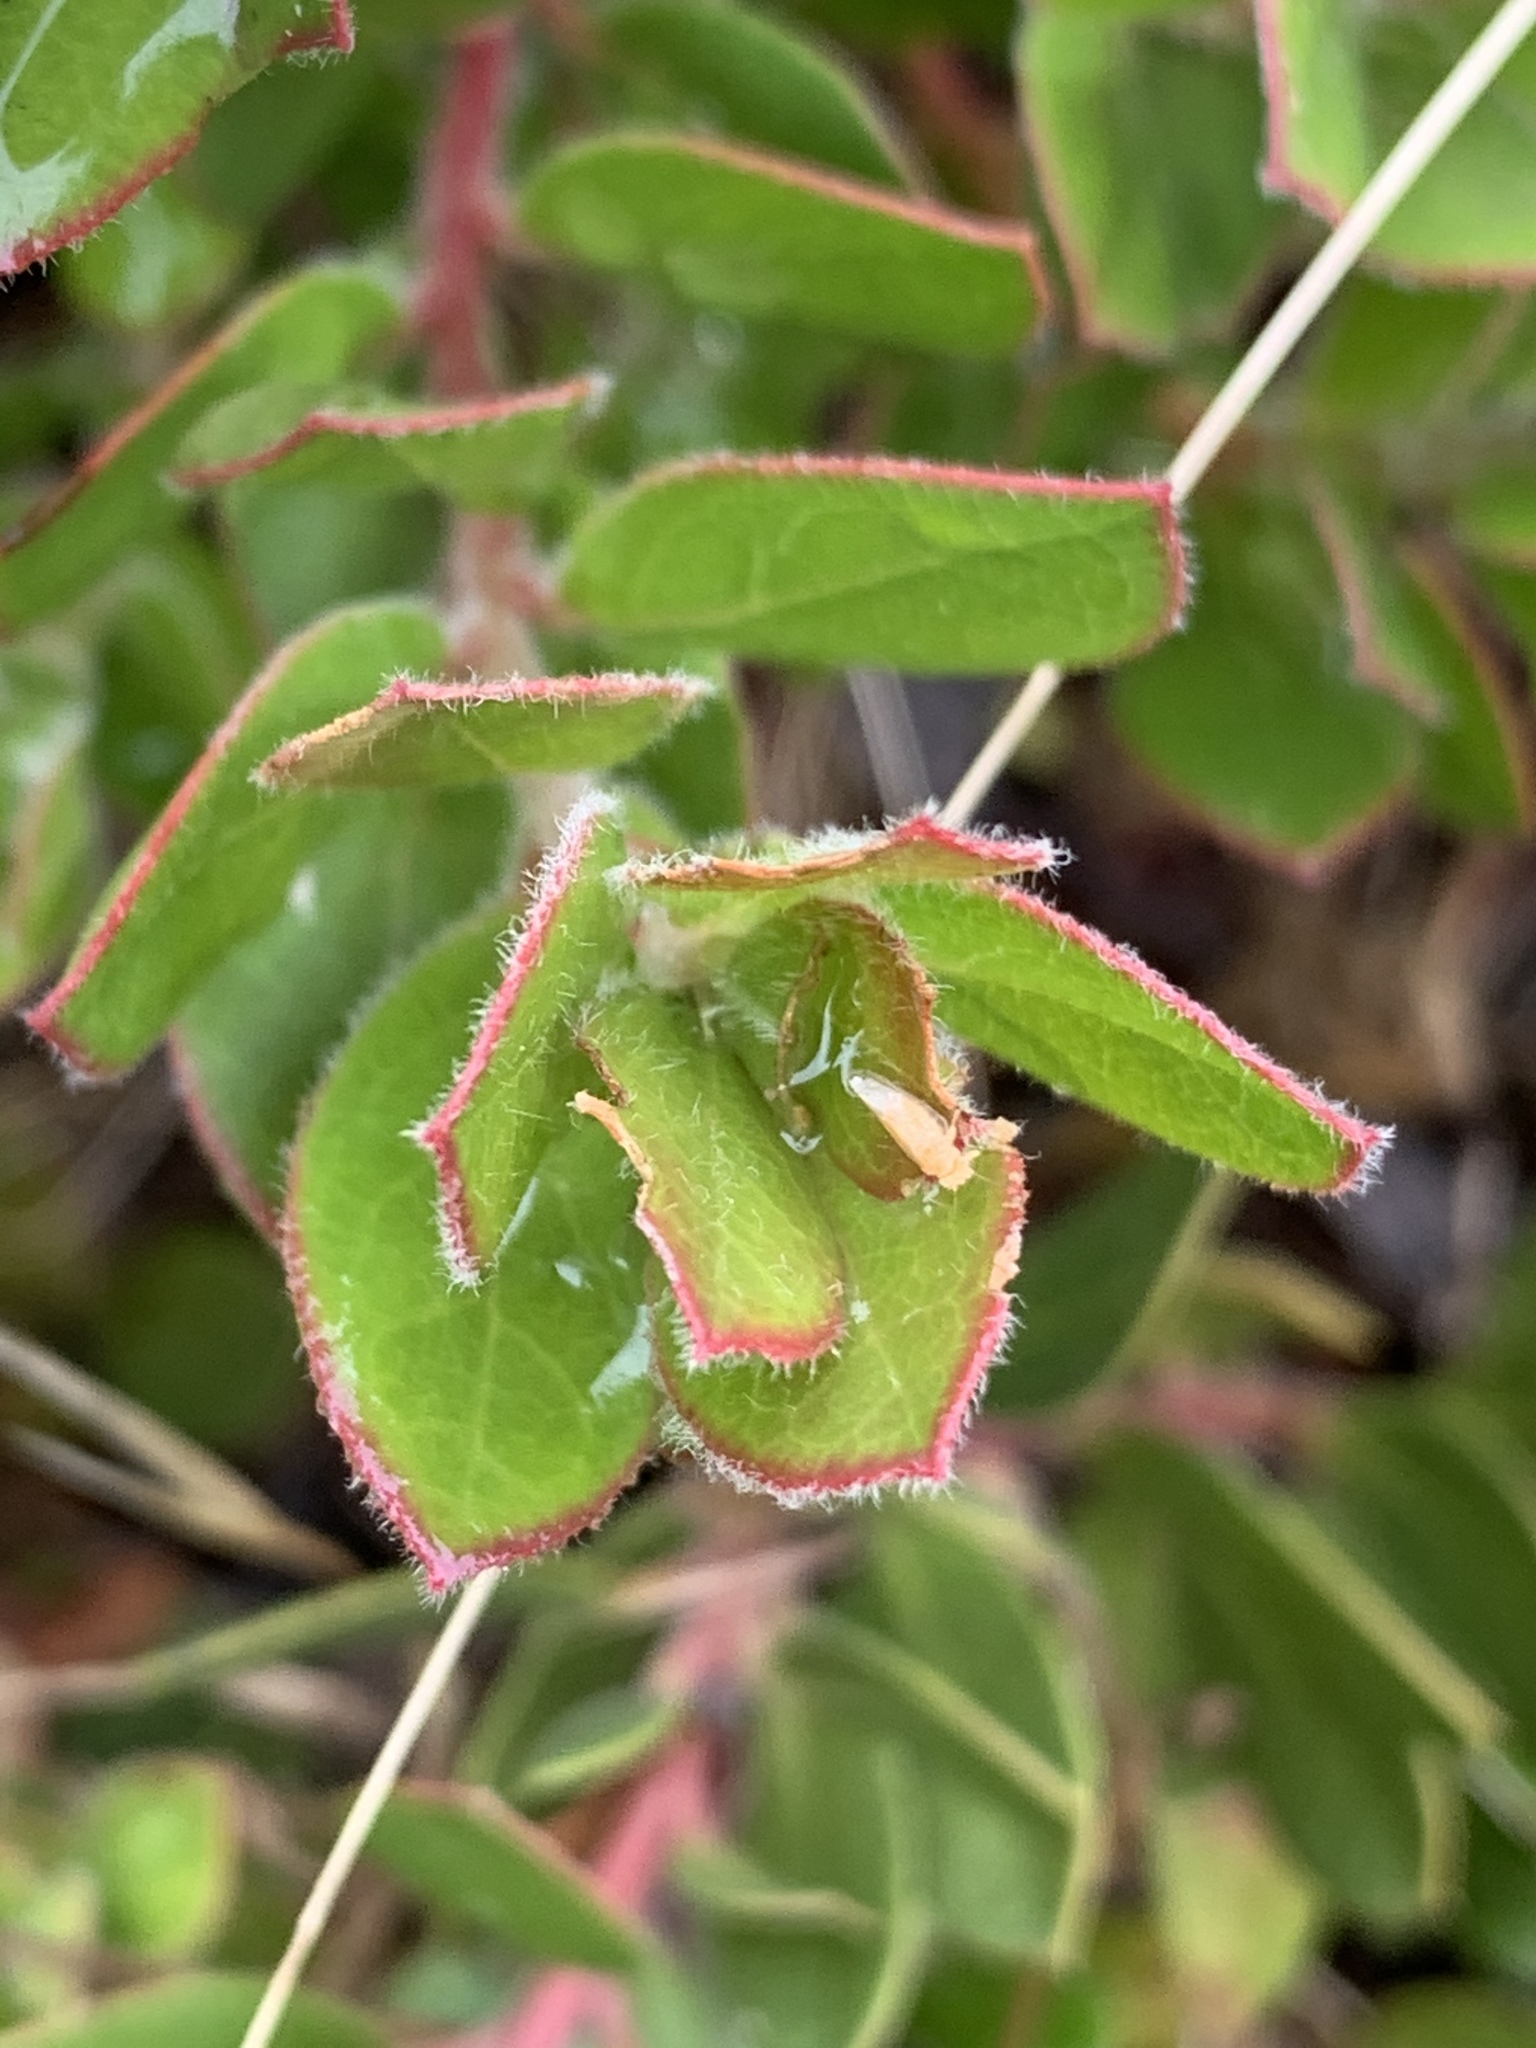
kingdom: Plantae
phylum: Tracheophyta
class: Magnoliopsida
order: Ericales
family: Ericaceae
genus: Arctostaphylos
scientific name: Arctostaphylos crustacea
